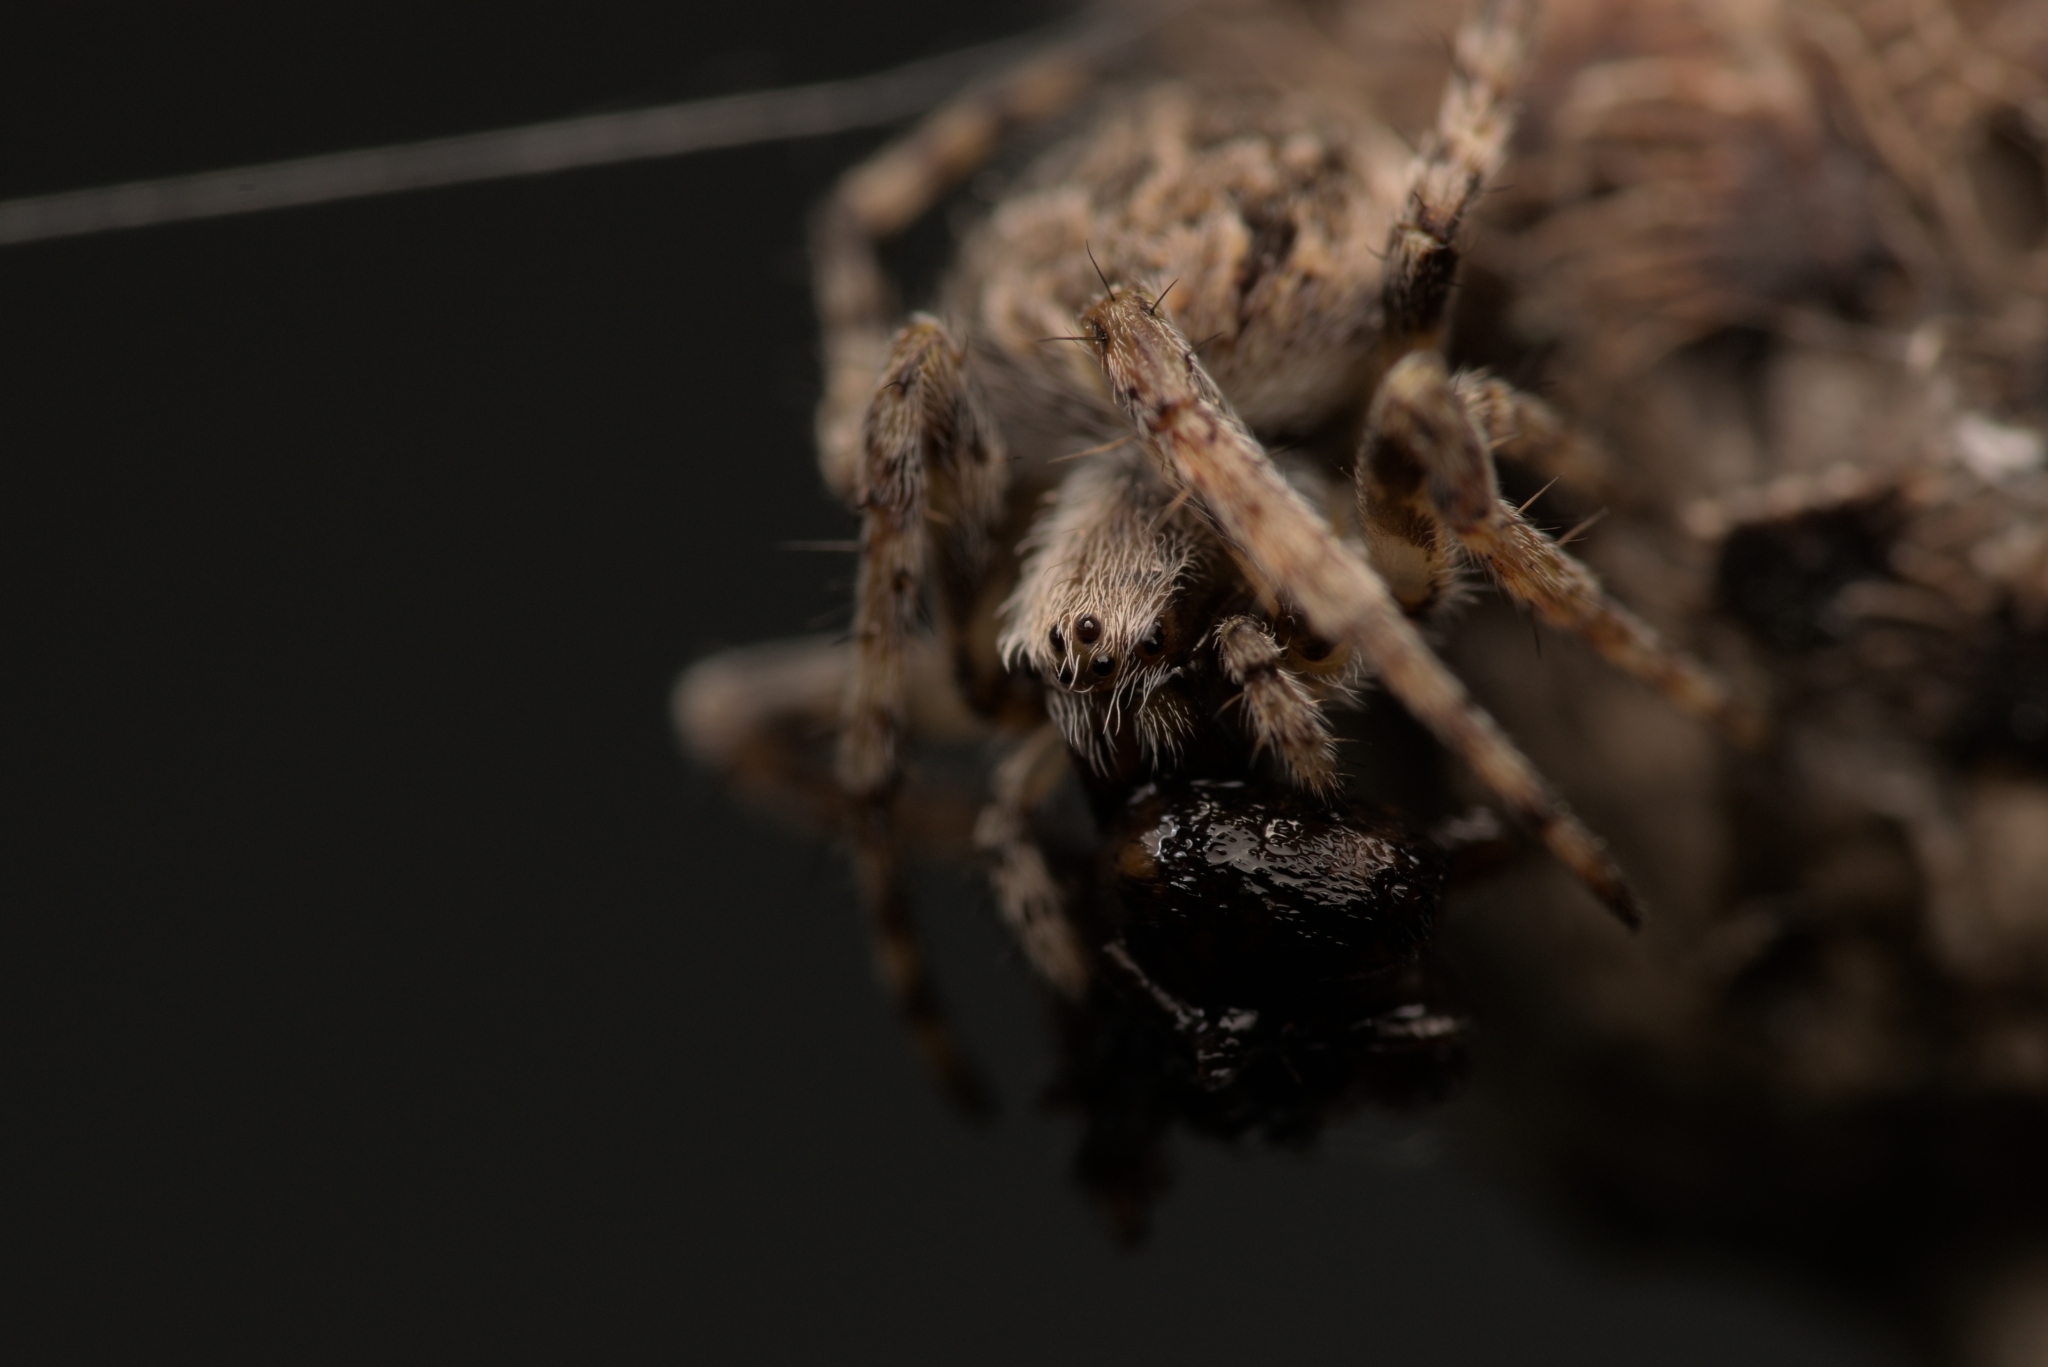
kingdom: Animalia
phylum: Arthropoda
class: Arachnida
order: Araneae
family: Araneidae
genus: Agalenatea
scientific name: Agalenatea redii
